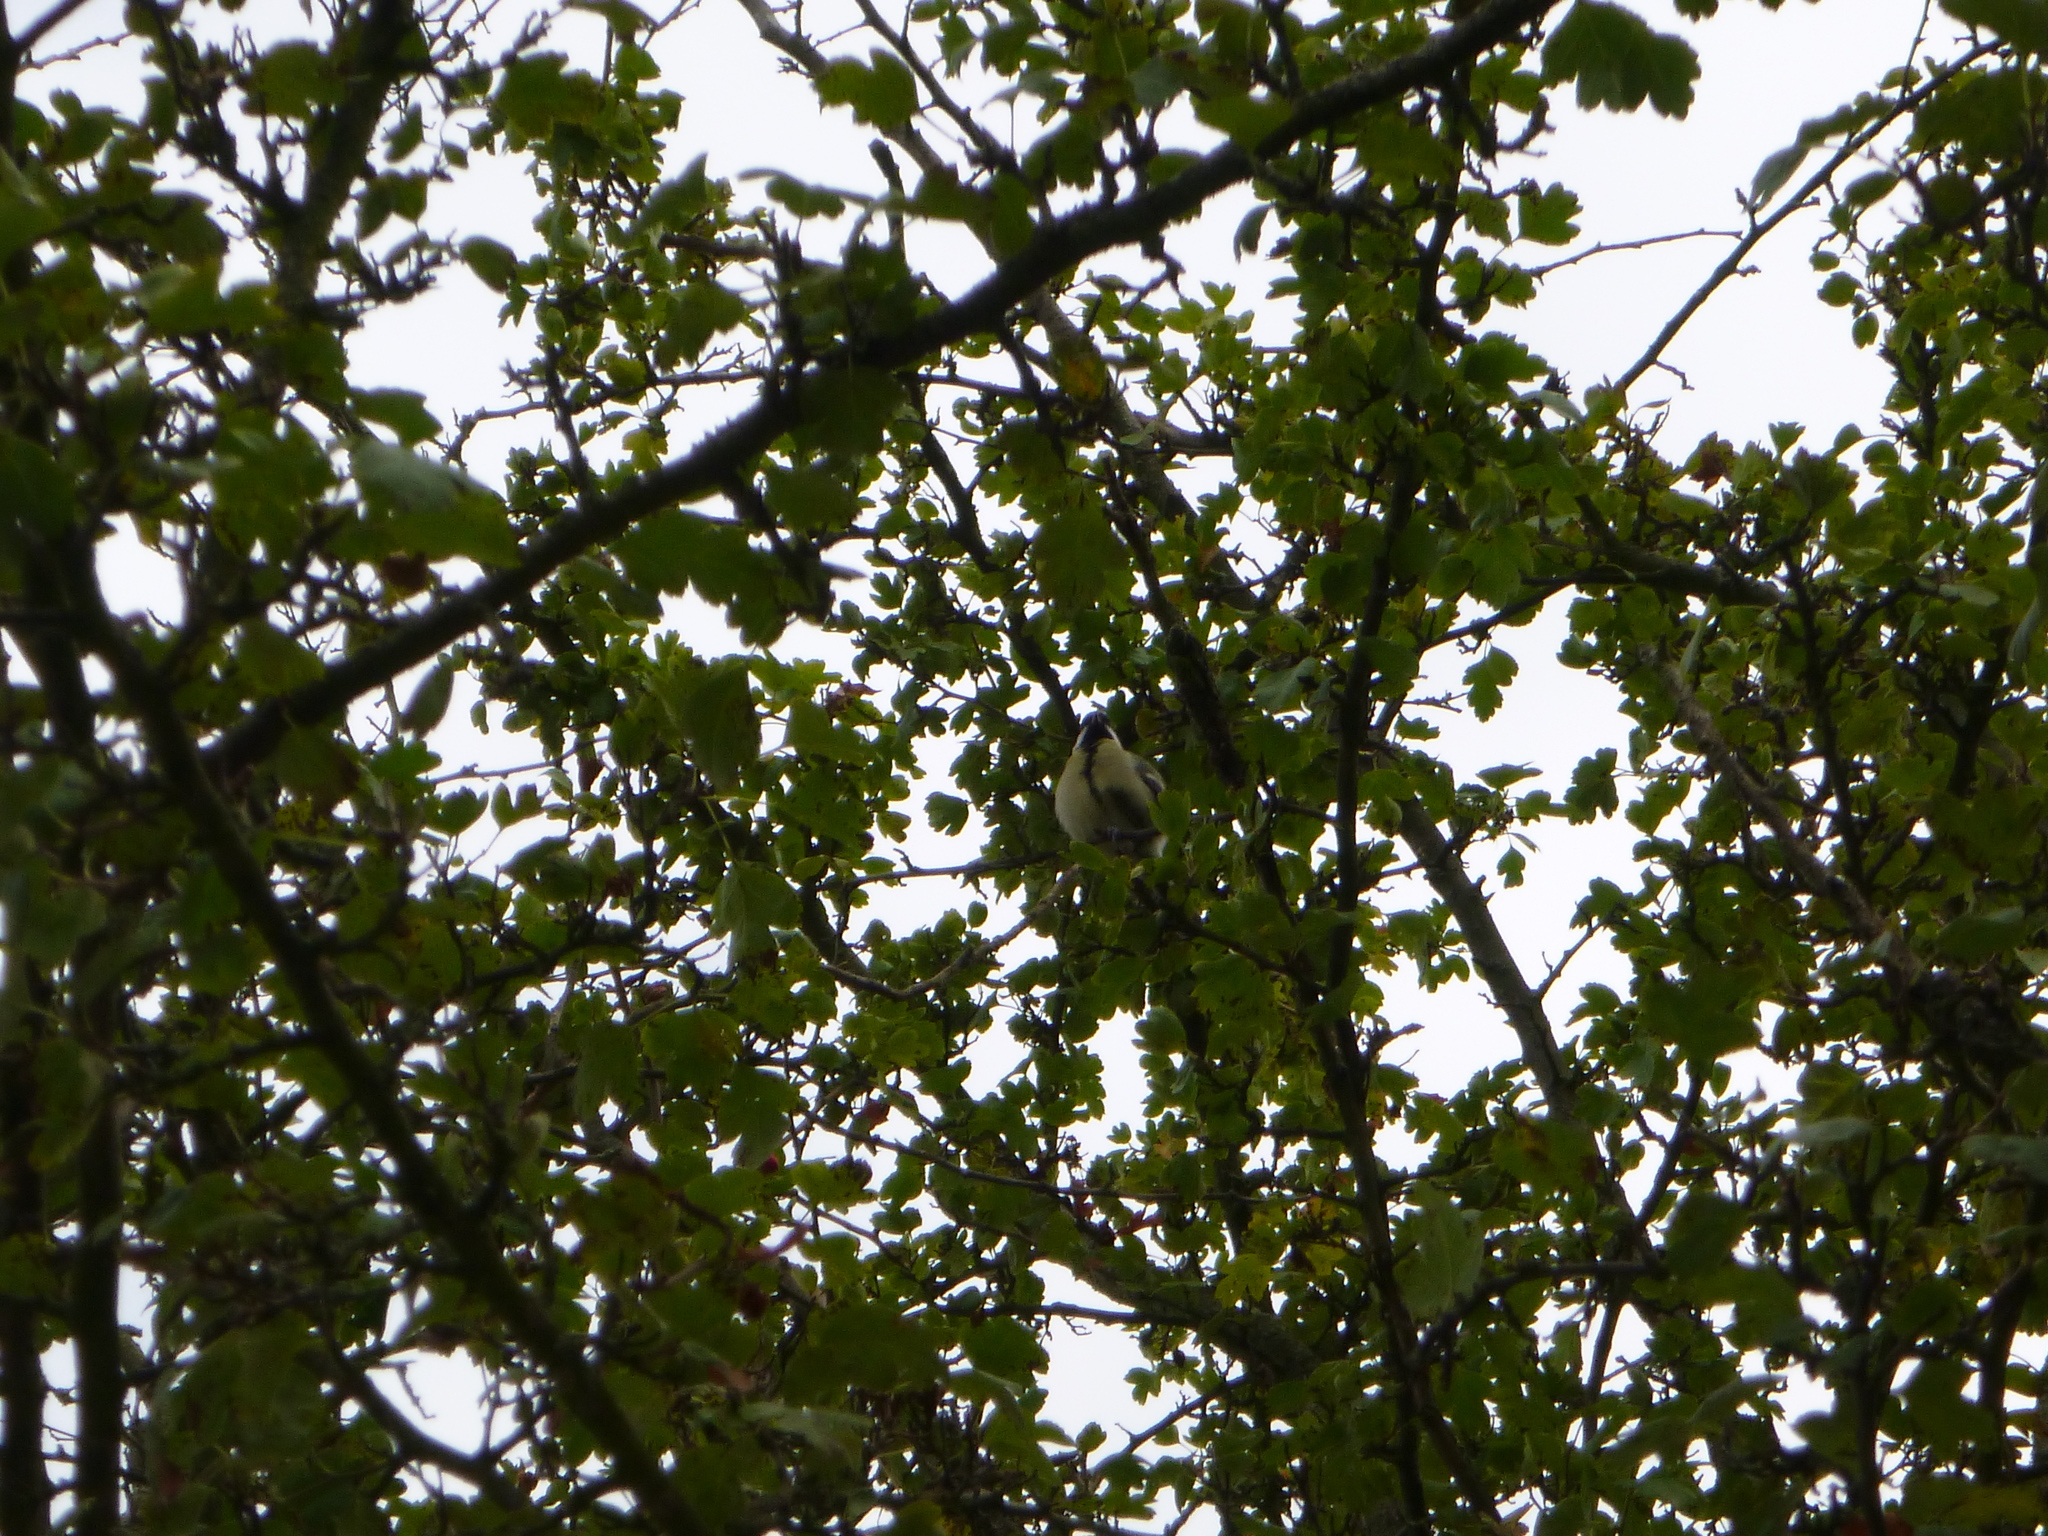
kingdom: Animalia
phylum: Chordata
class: Aves
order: Passeriformes
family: Paridae
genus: Parus
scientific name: Parus major
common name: Great tit
